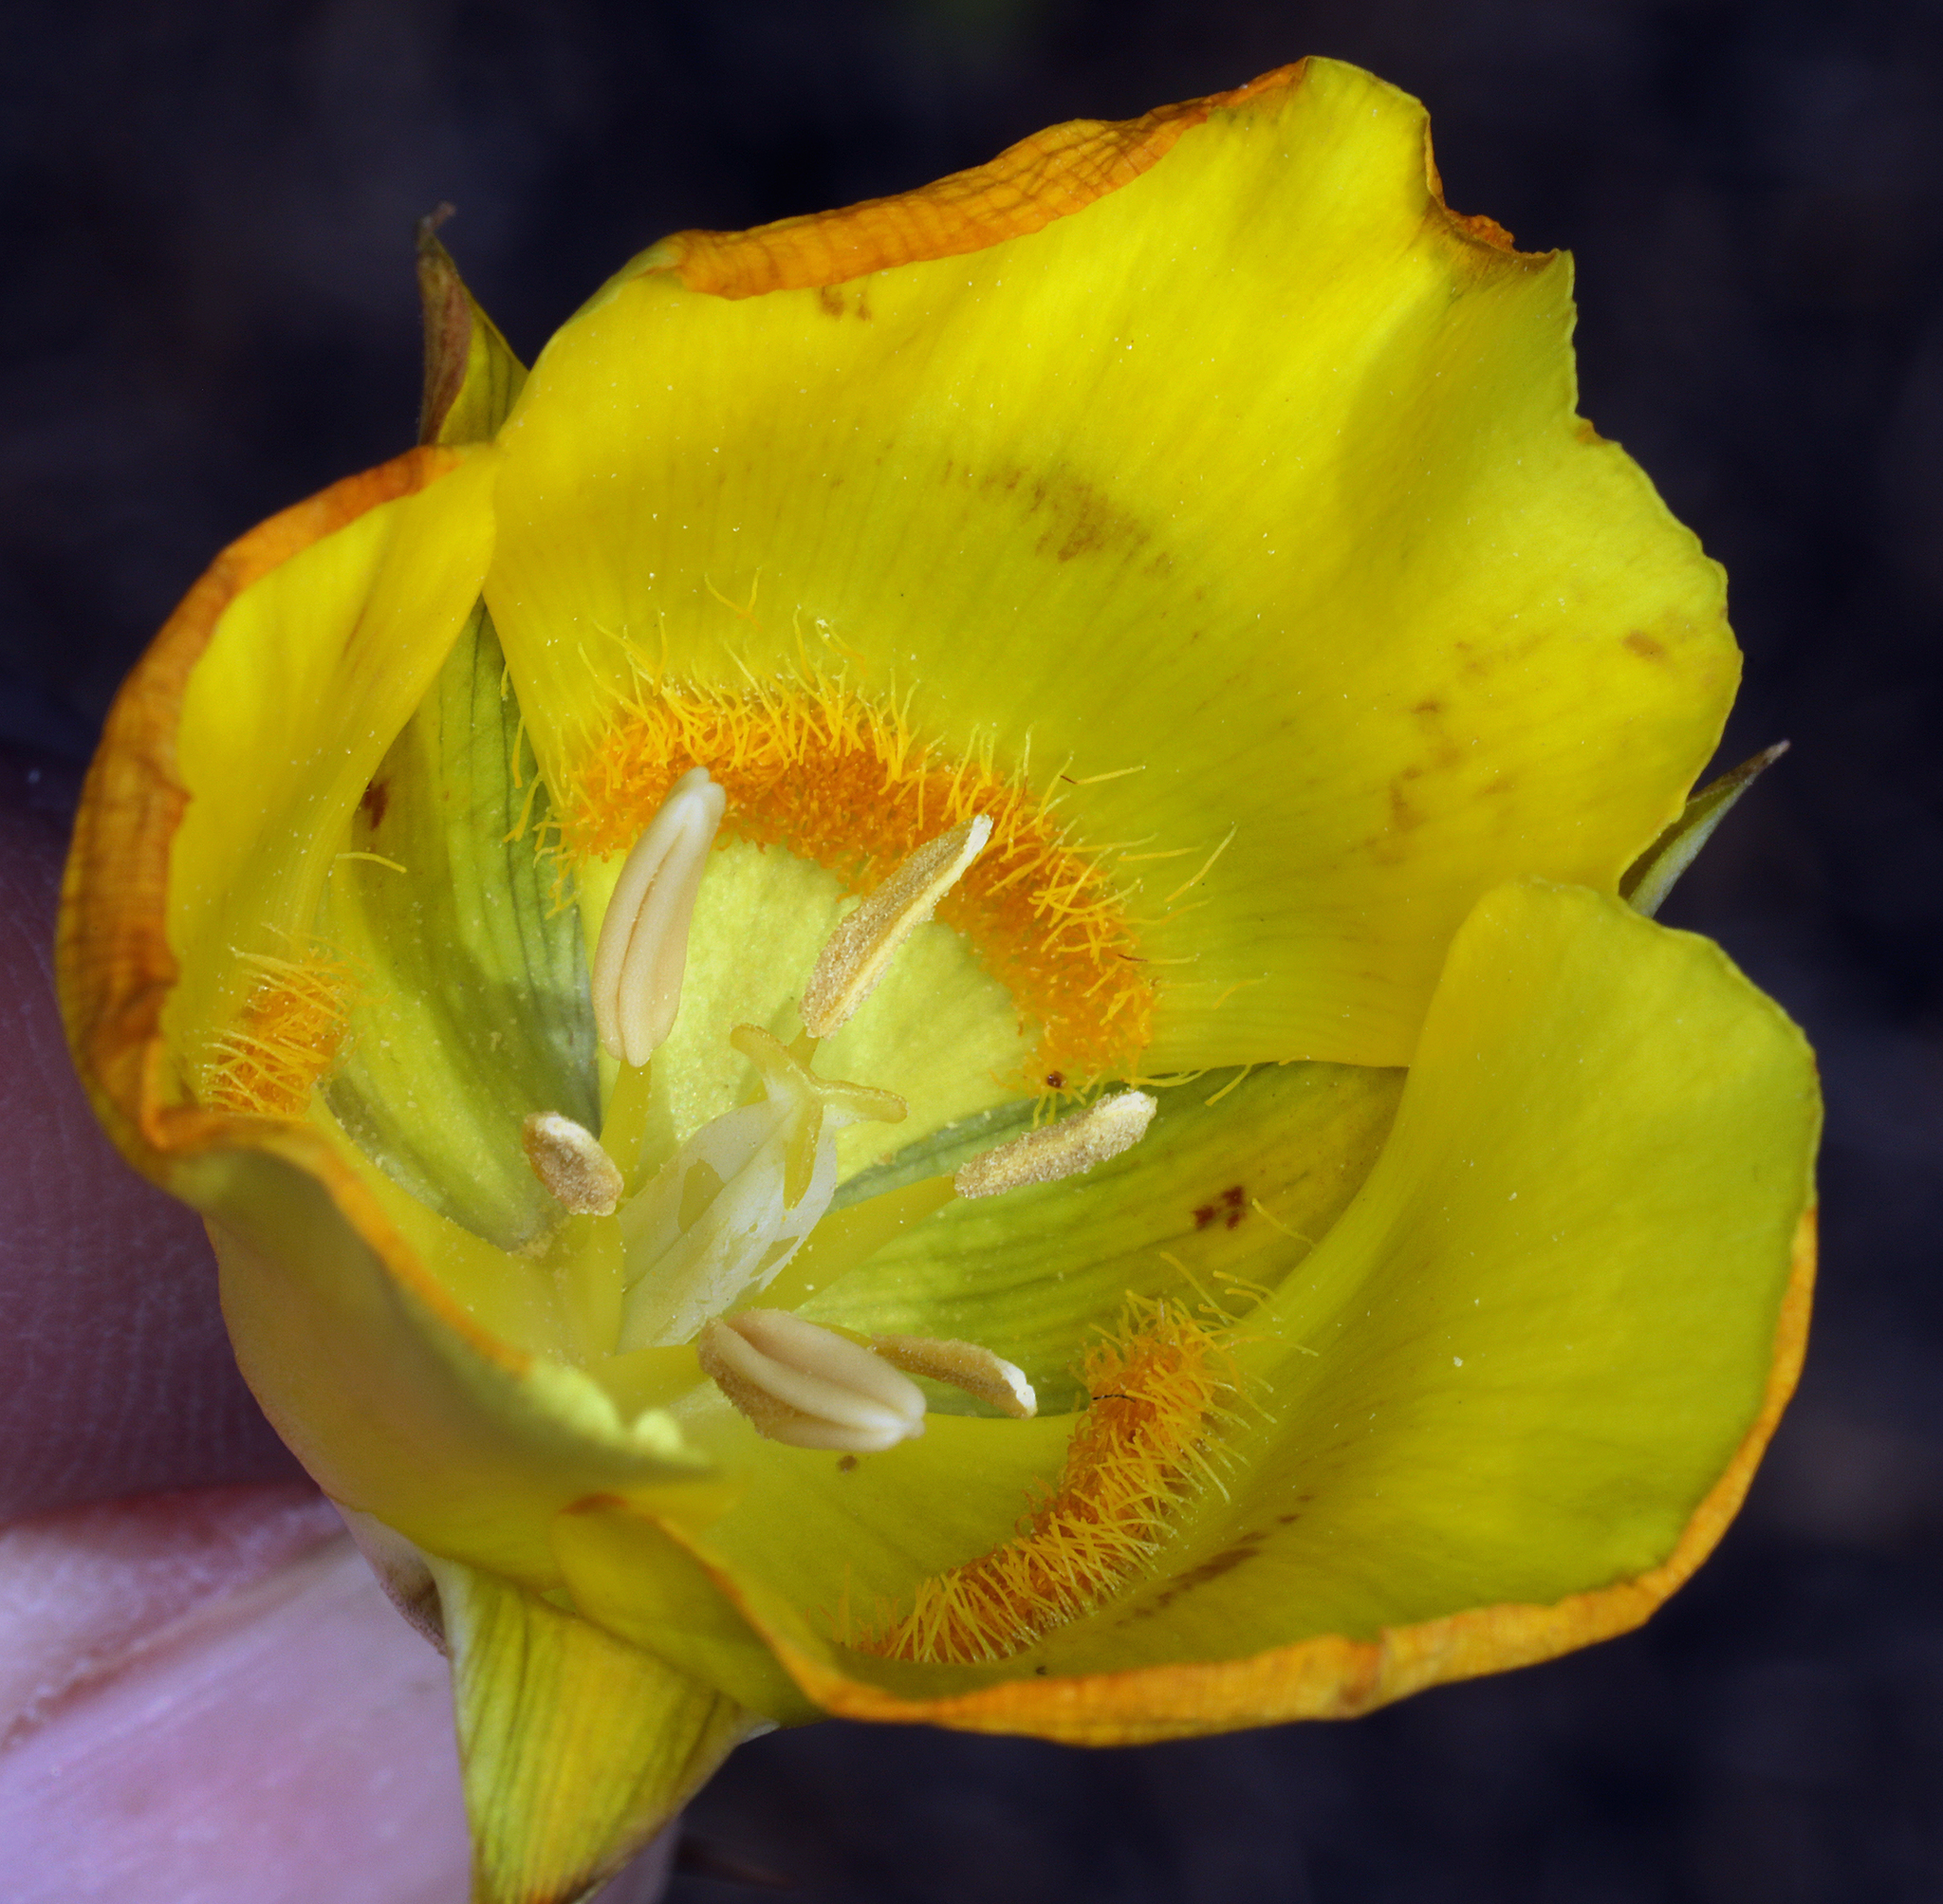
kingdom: Plantae
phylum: Tracheophyta
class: Liliopsida
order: Liliales
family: Liliaceae
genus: Calochortus
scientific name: Calochortus luteus
